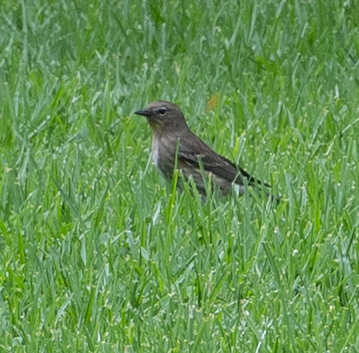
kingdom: Animalia
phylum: Chordata
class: Aves
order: Passeriformes
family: Parulidae
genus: Setophaga
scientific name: Setophaga coronata
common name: Myrtle warbler
